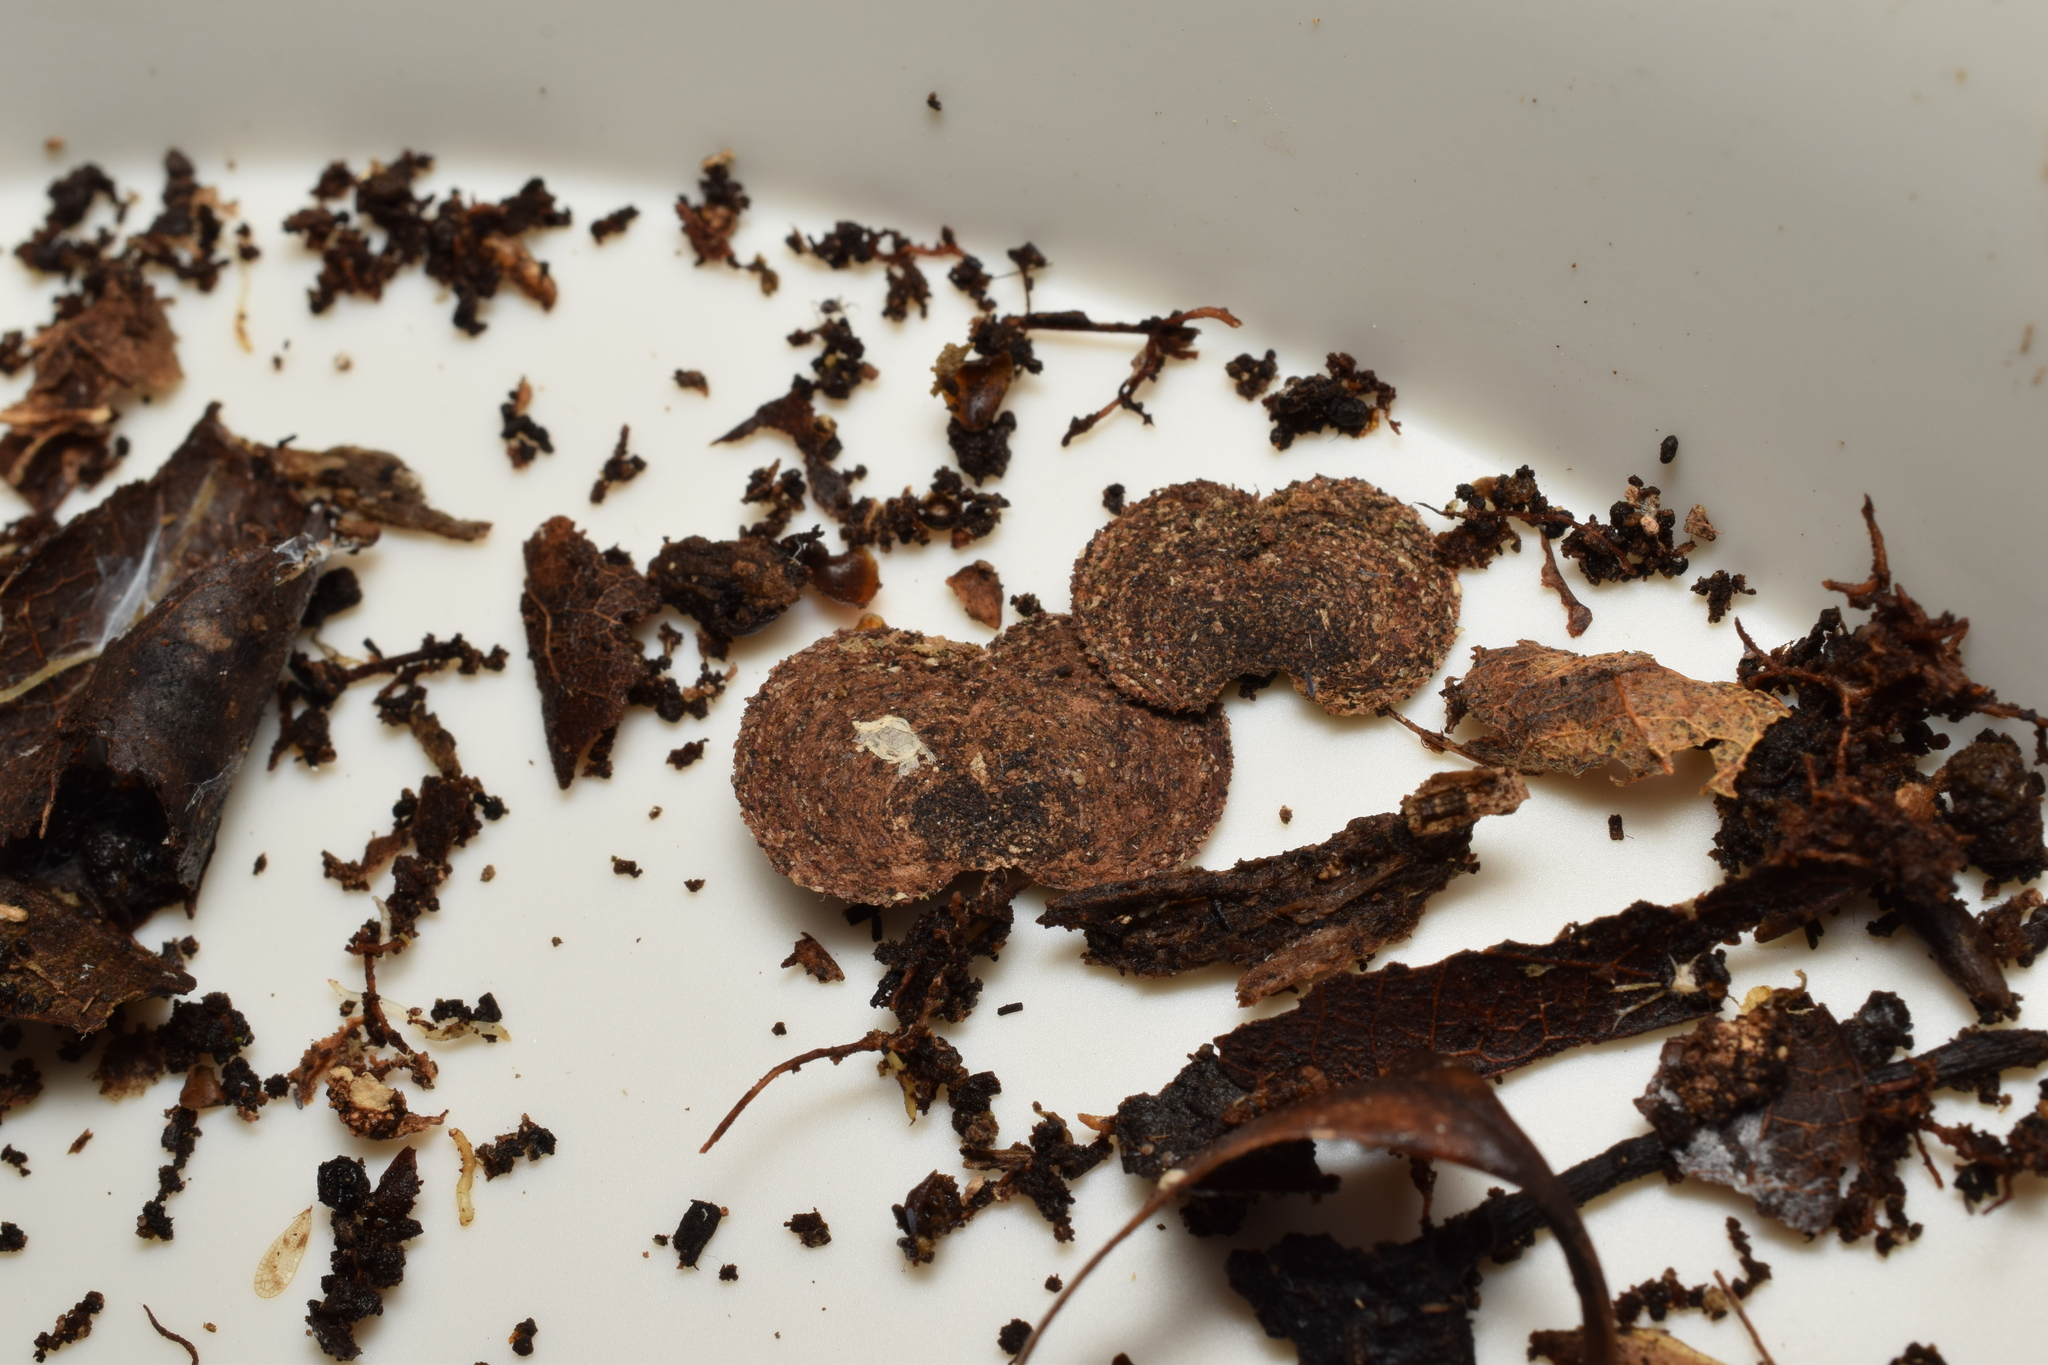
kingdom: Animalia
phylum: Arthropoda
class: Insecta
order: Lepidoptera
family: Tineidae
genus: Ippa
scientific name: Ippa conspersa
